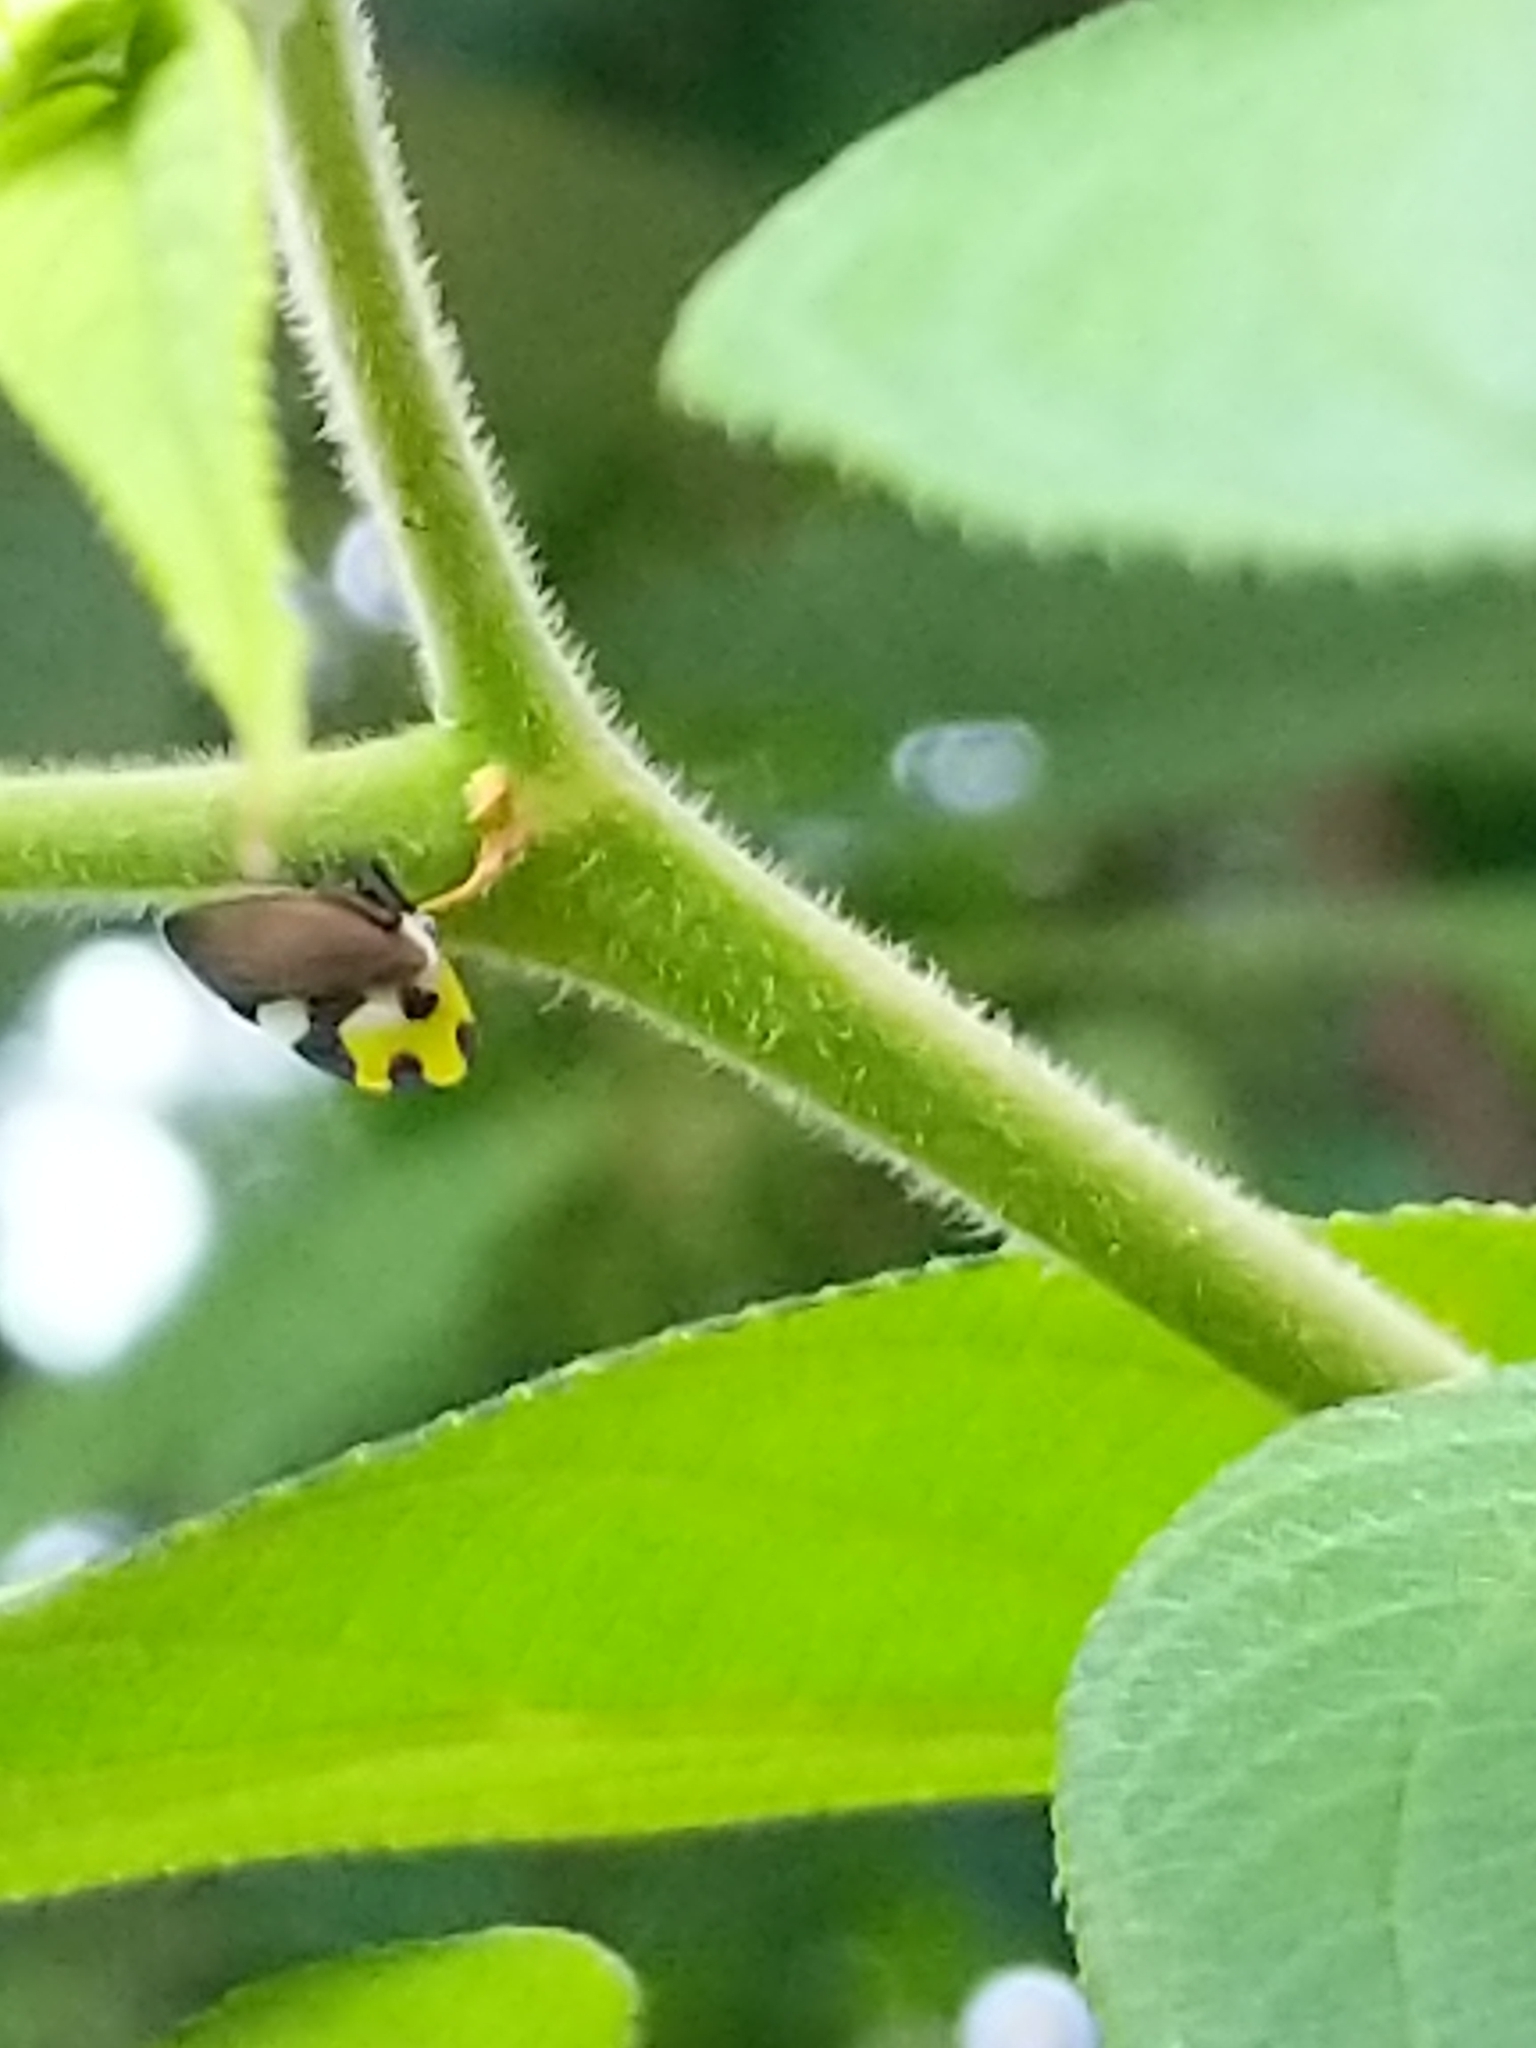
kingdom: Animalia
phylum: Arthropoda
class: Insecta
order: Hemiptera
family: Membracidae
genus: Membracis
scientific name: Membracis mexicana
